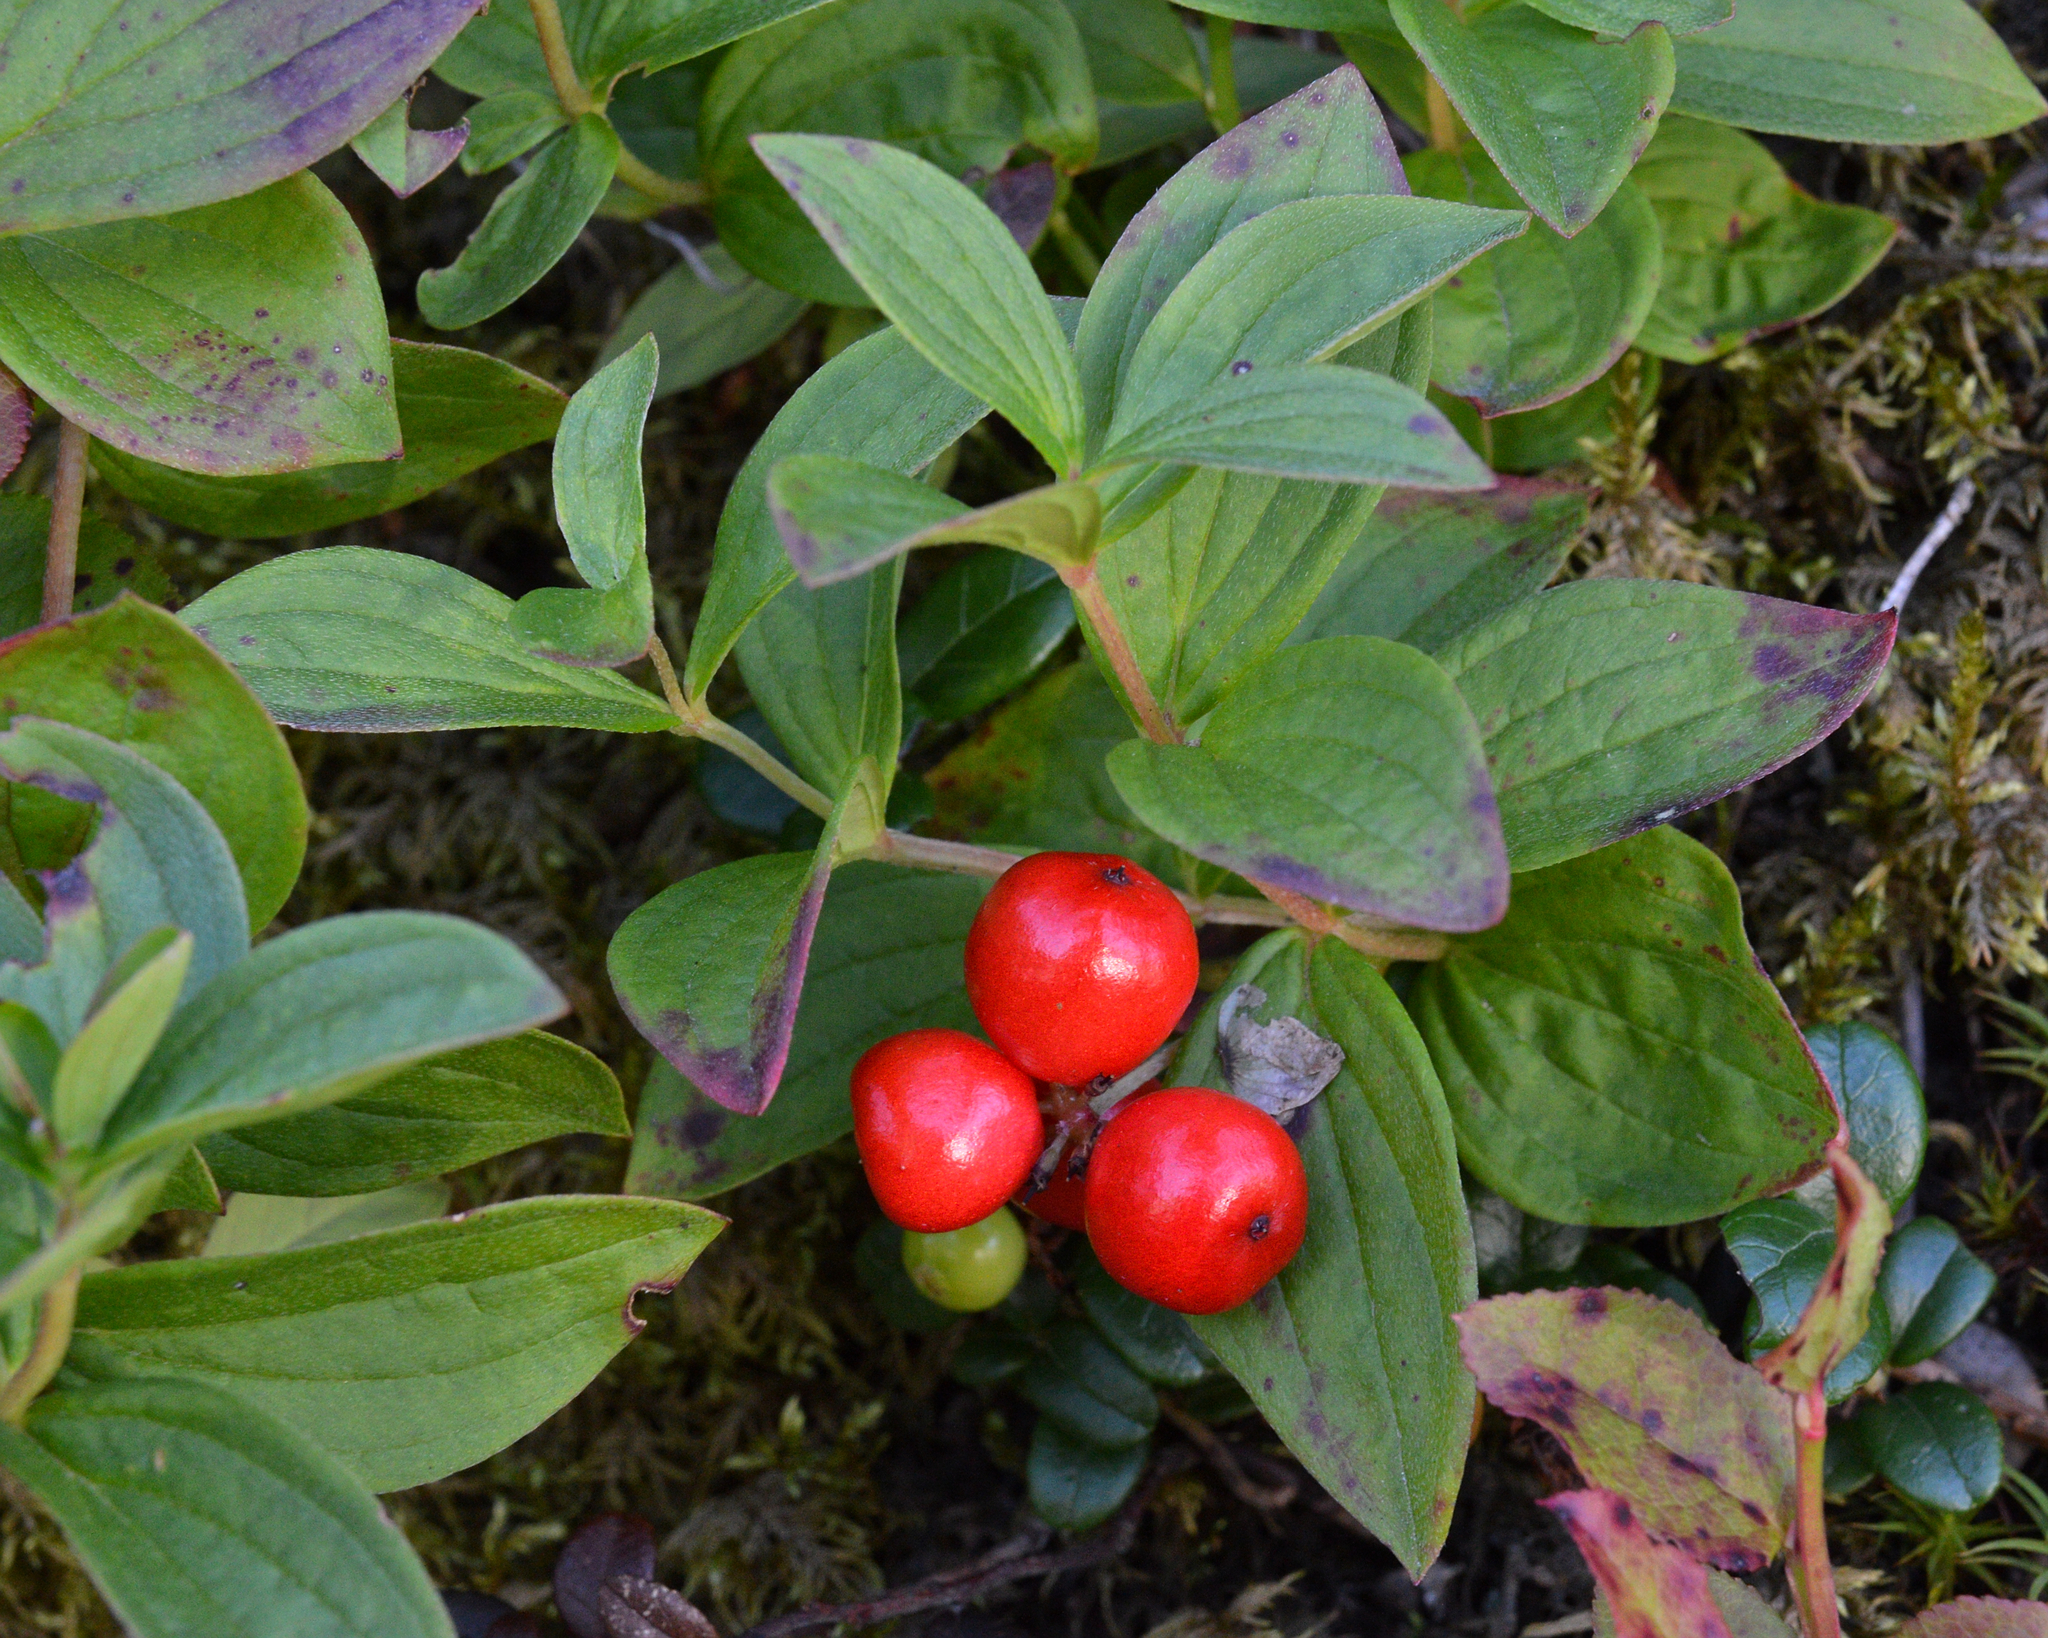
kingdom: Plantae
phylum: Tracheophyta
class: Magnoliopsida
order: Cornales
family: Cornaceae
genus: Cornus
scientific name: Cornus suecica
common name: Dwarf cornel
